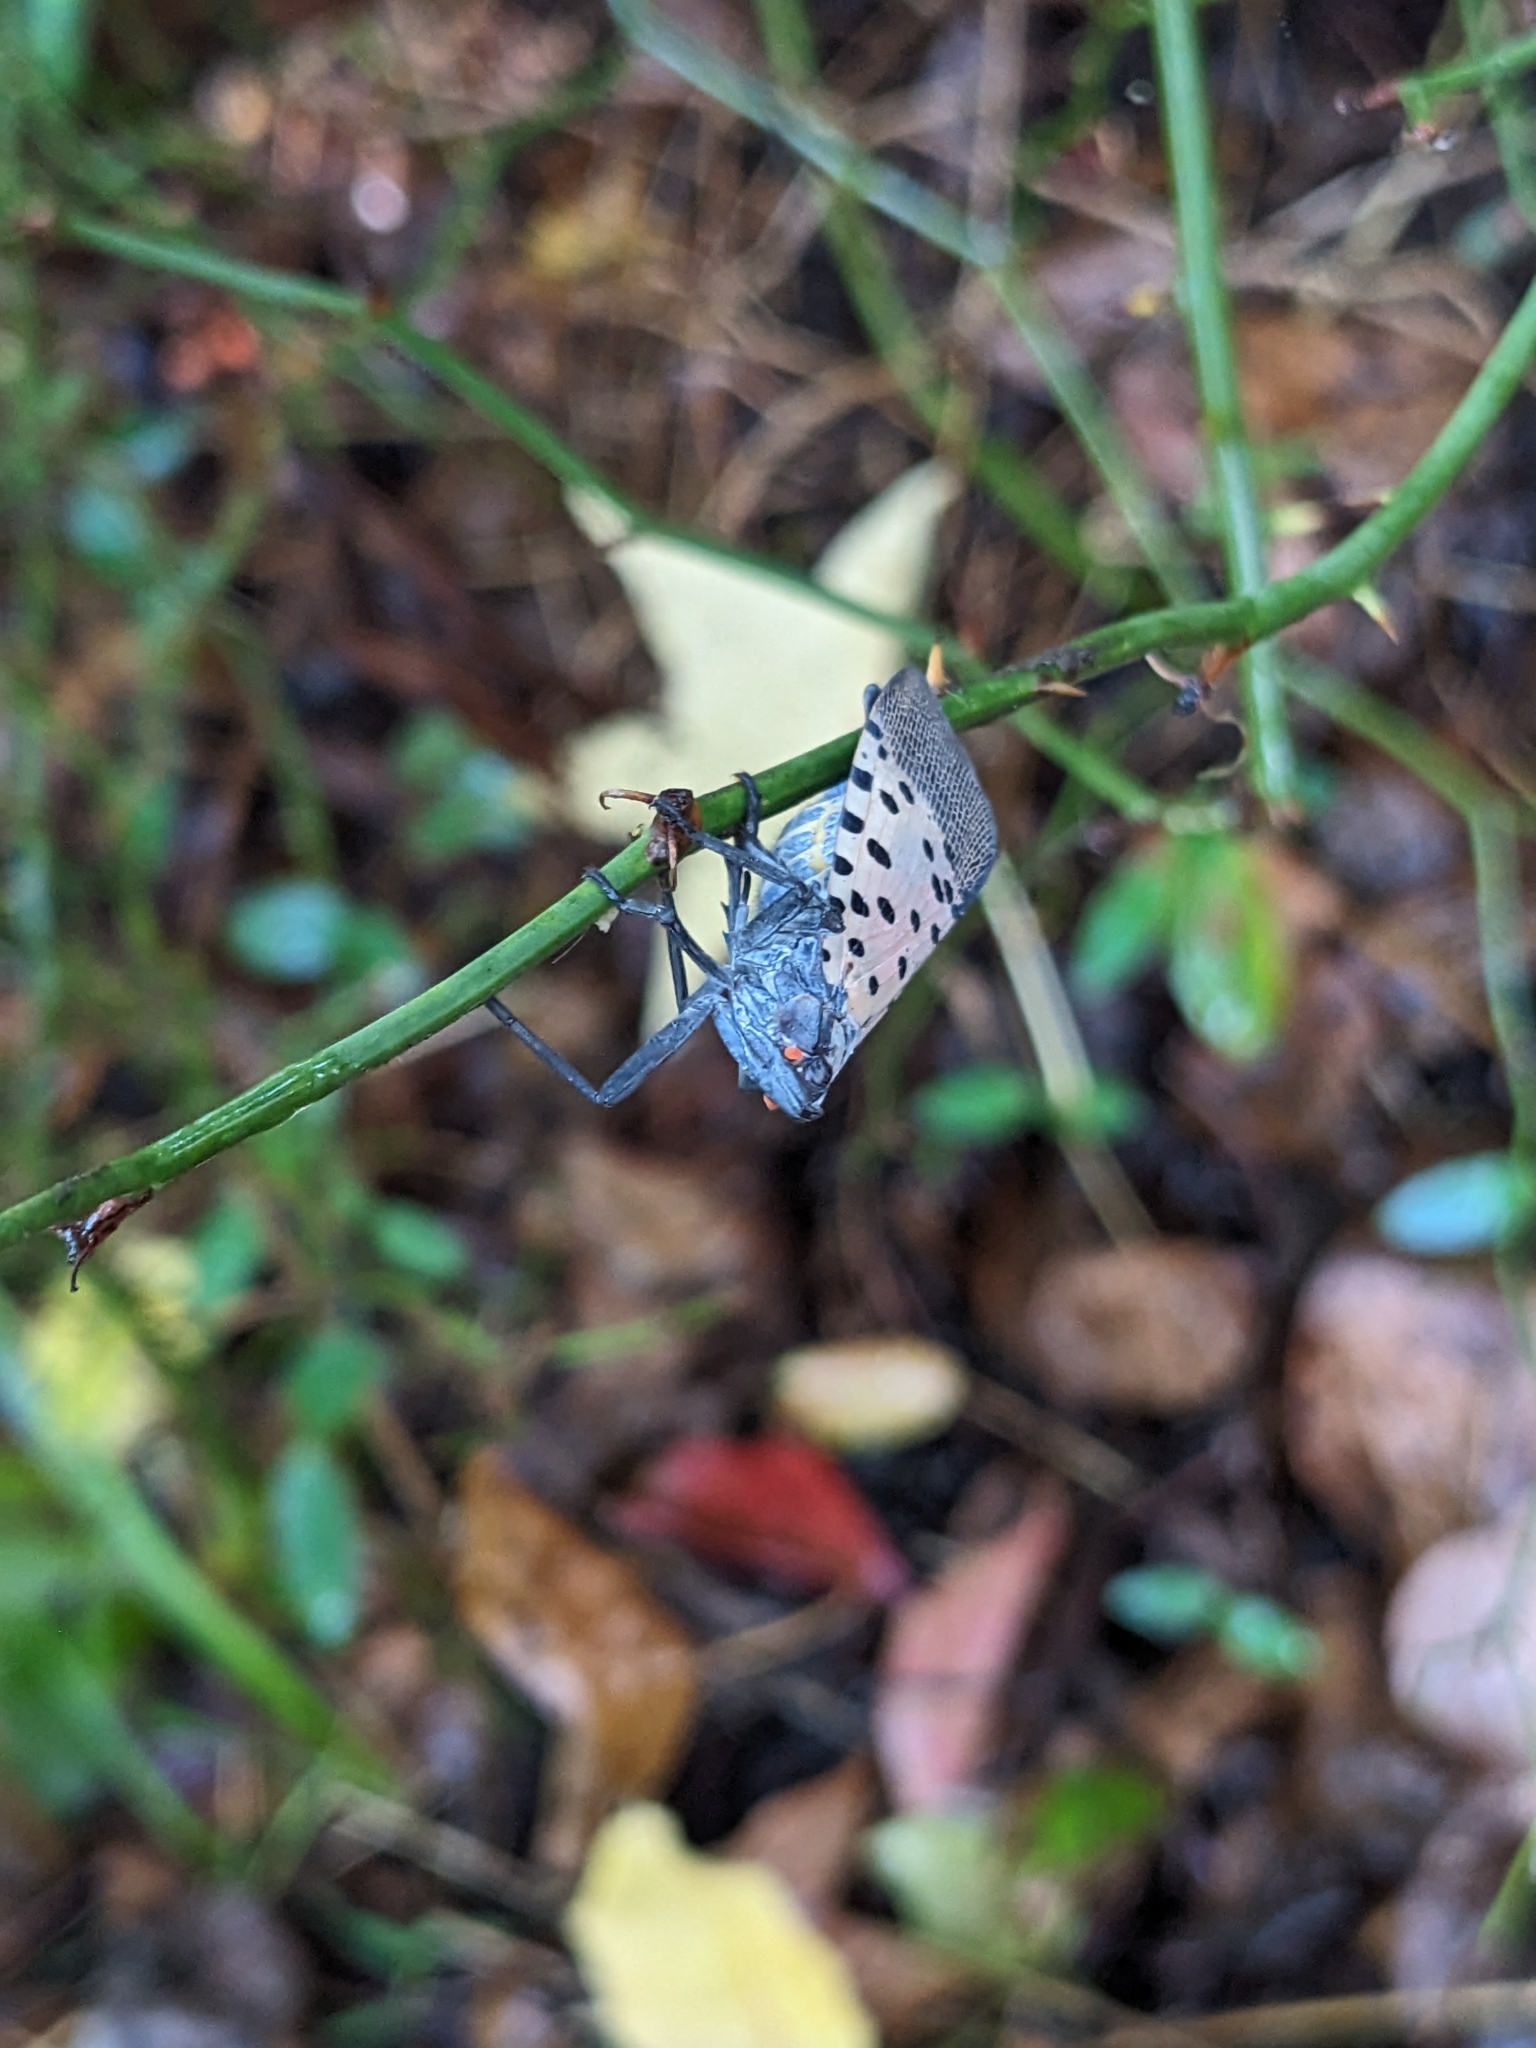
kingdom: Animalia
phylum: Arthropoda
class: Insecta
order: Hemiptera
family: Fulgoridae
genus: Lycorma
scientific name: Lycorma delicatula
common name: Spotted lanternfly
